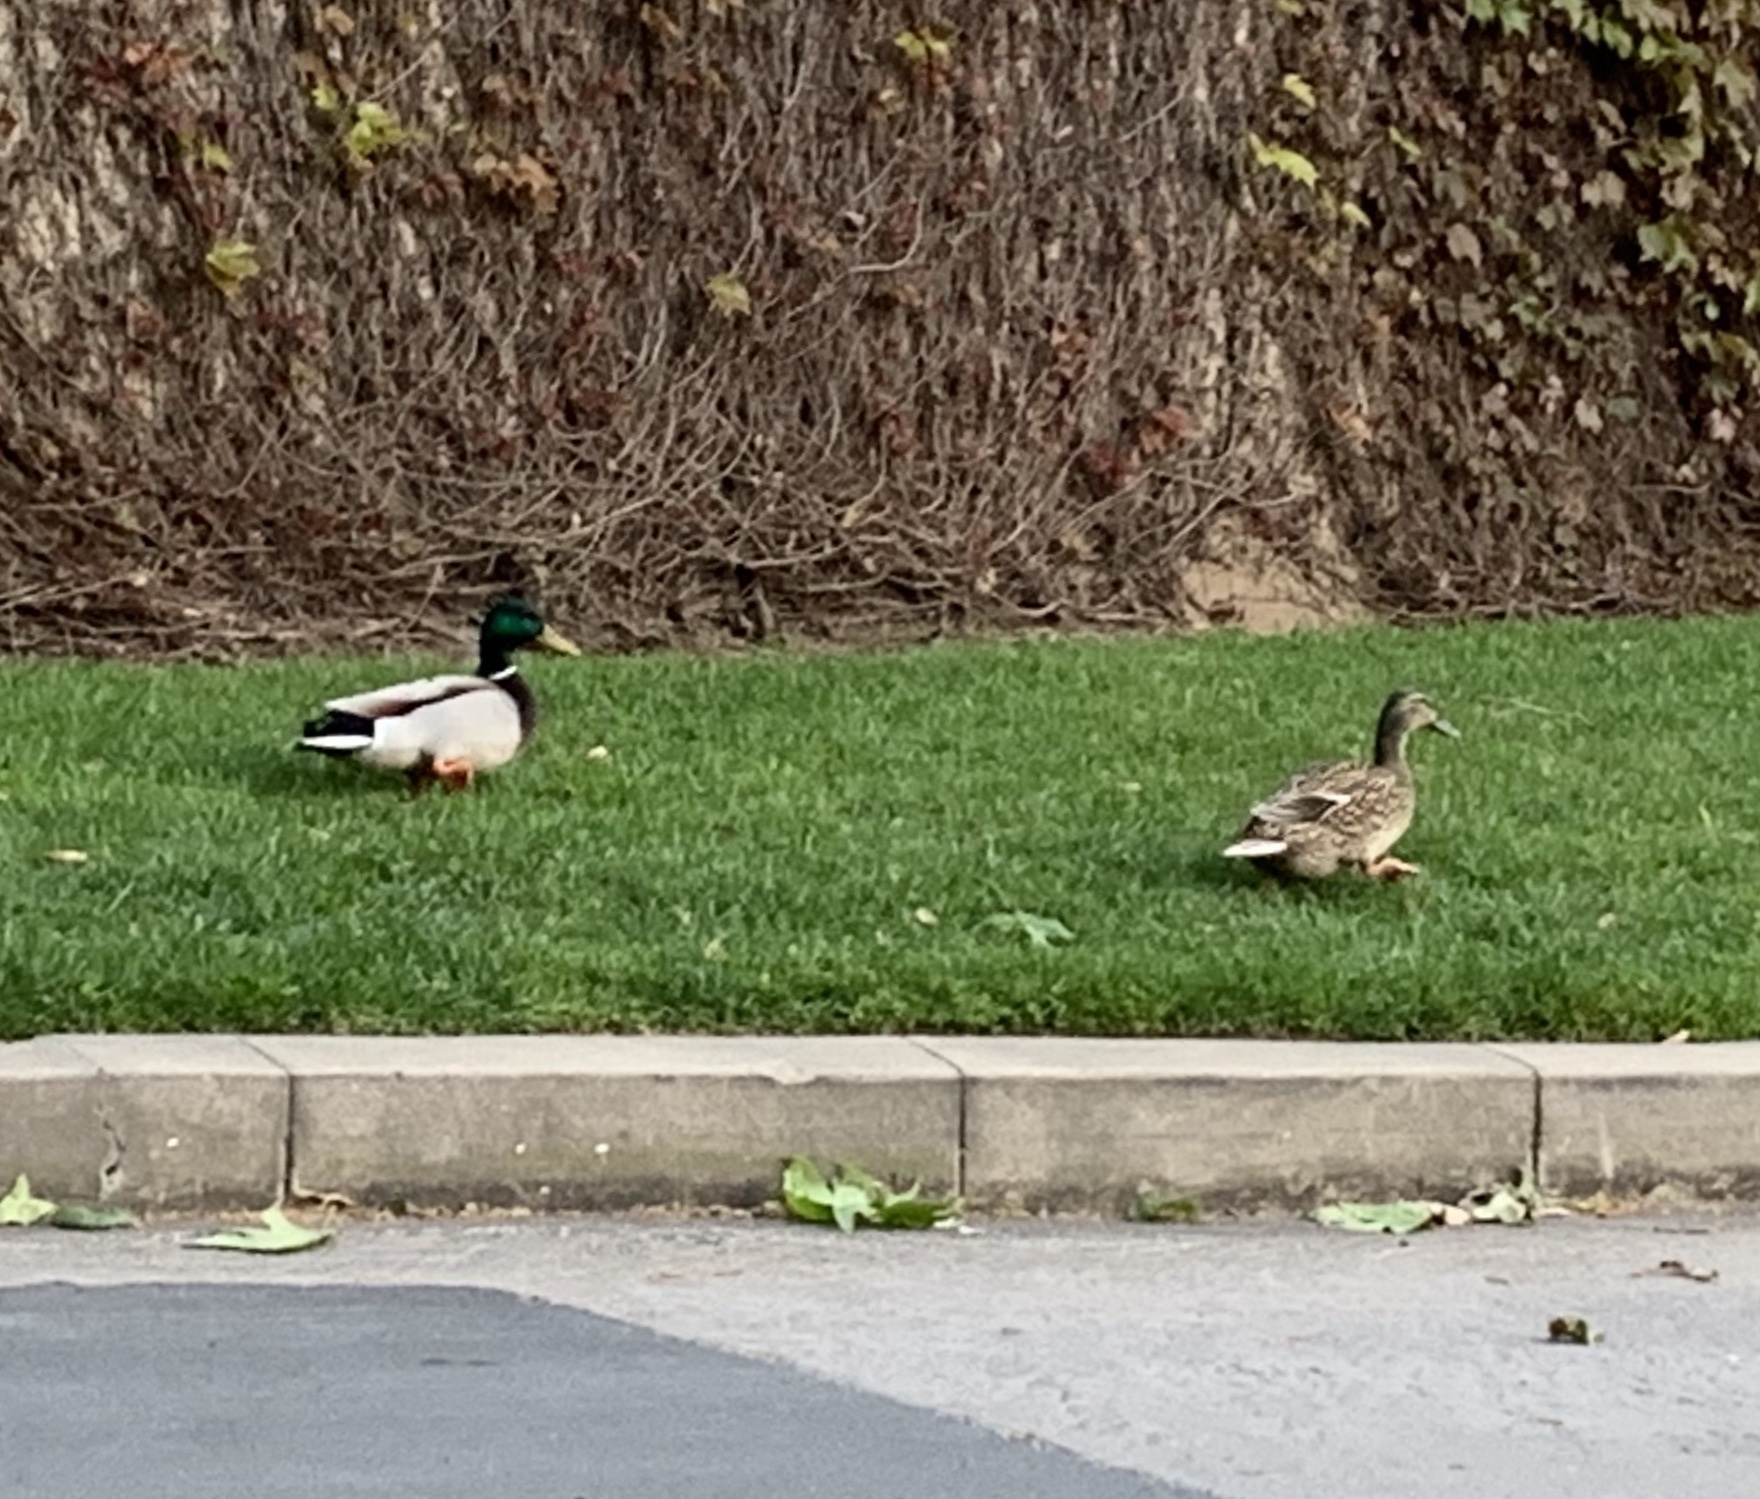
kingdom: Animalia
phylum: Chordata
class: Aves
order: Anseriformes
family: Anatidae
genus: Anas
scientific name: Anas platyrhynchos
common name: Mallard
